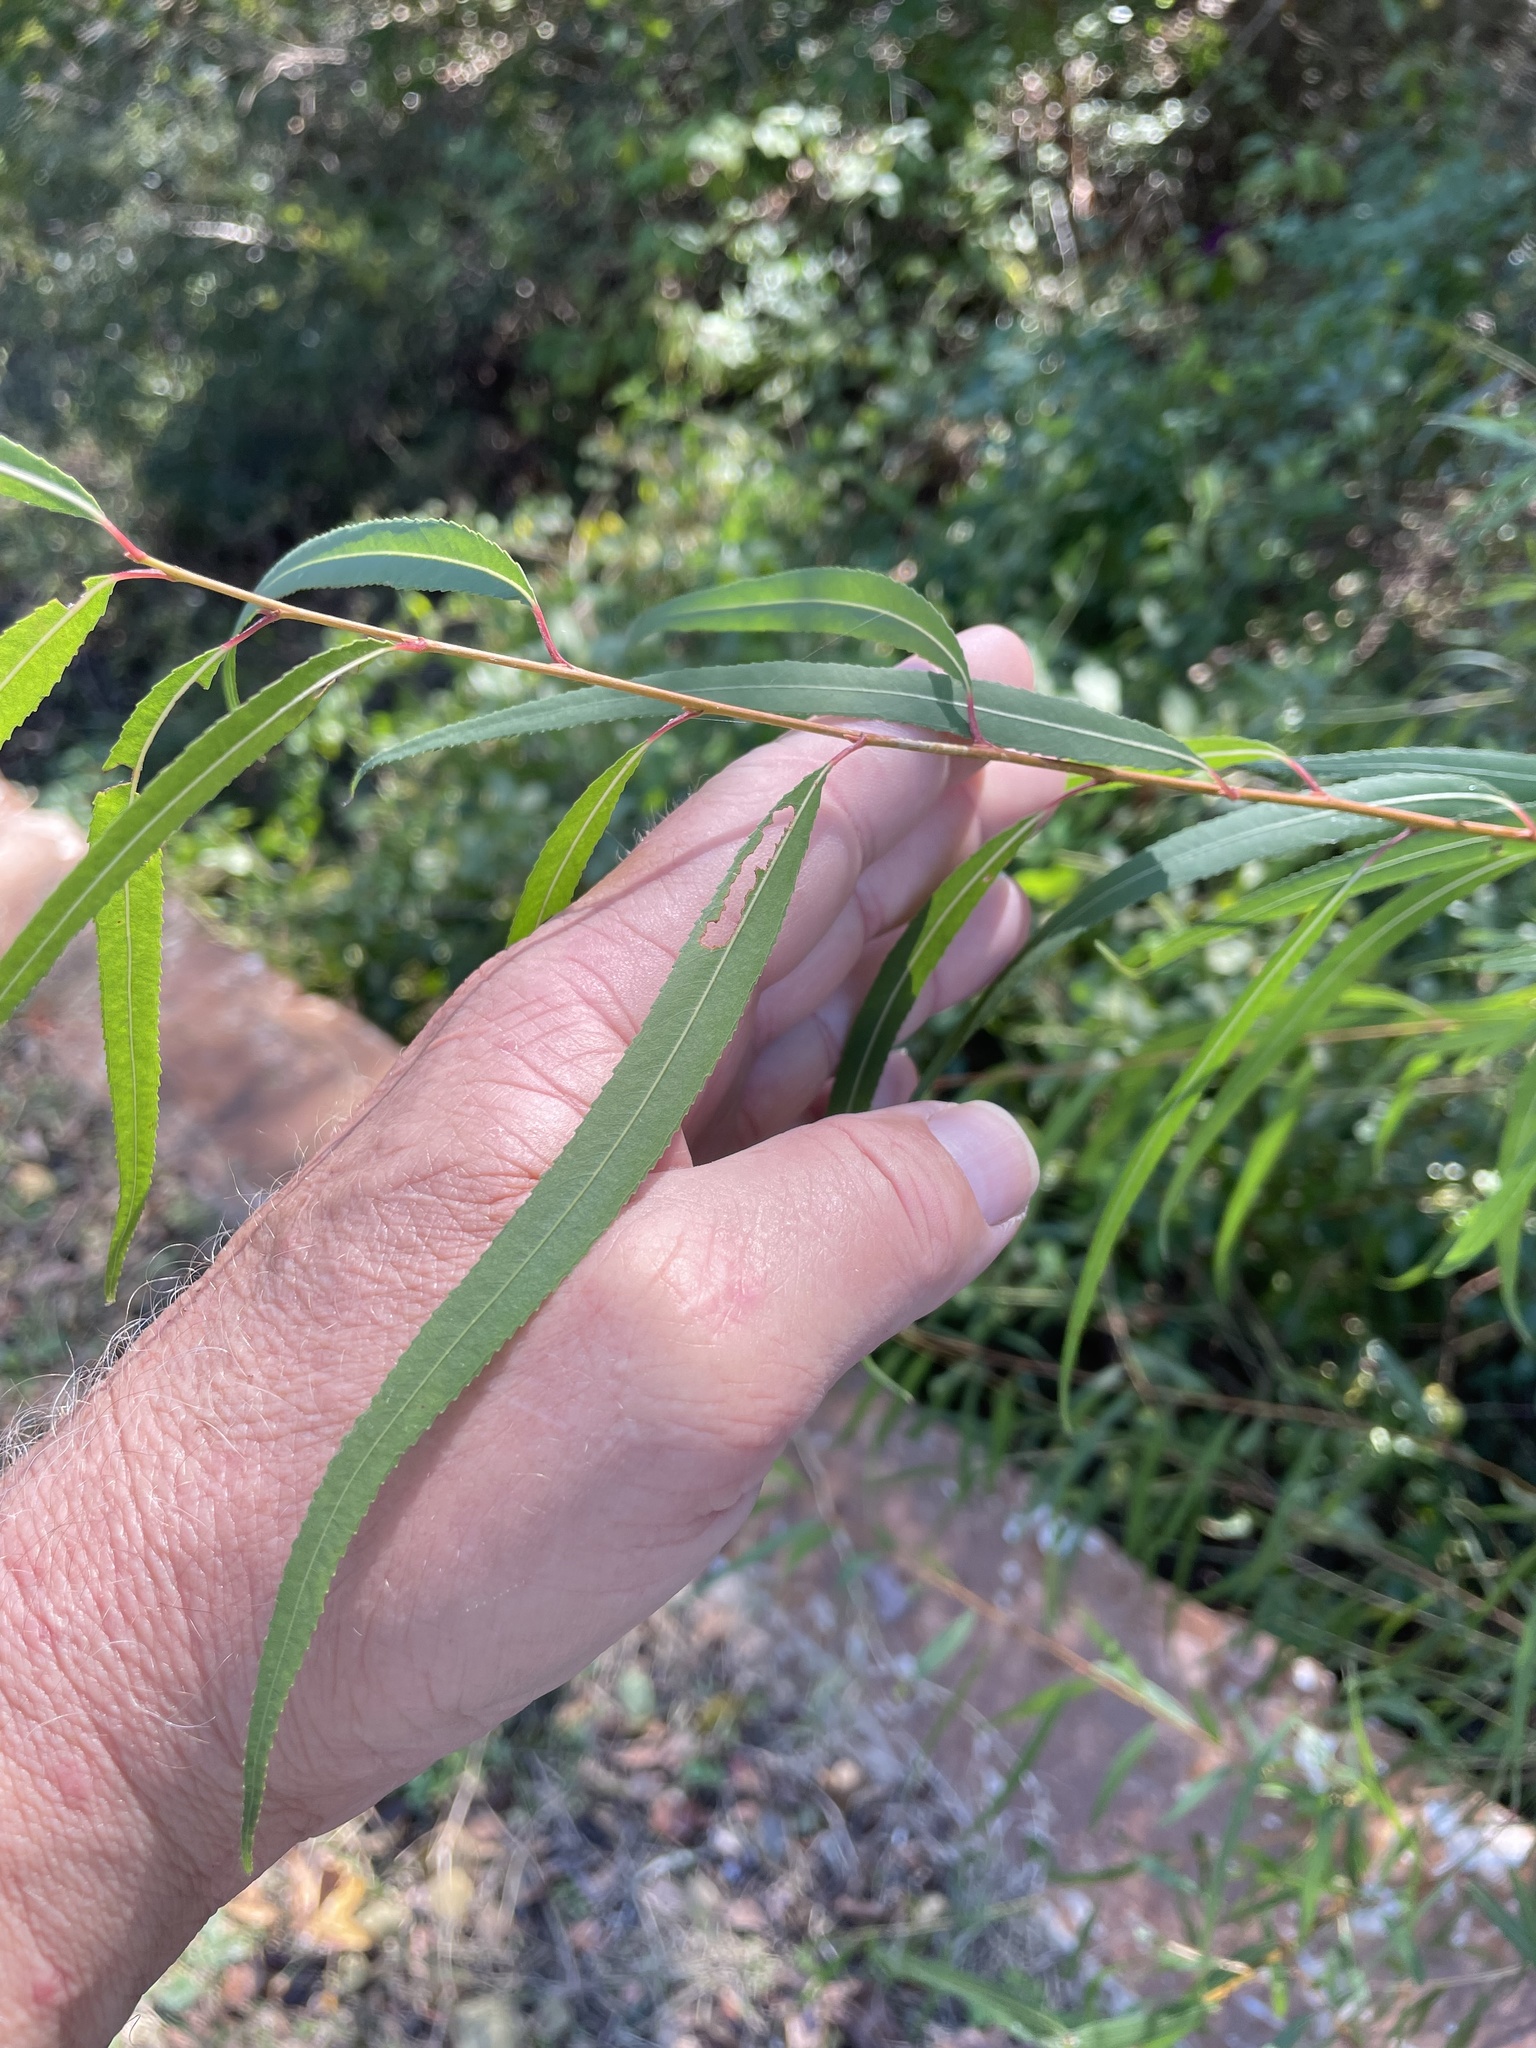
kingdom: Plantae
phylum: Tracheophyta
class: Magnoliopsida
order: Malpighiales
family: Salicaceae
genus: Salix
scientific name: Salix nigra
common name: Black willow
